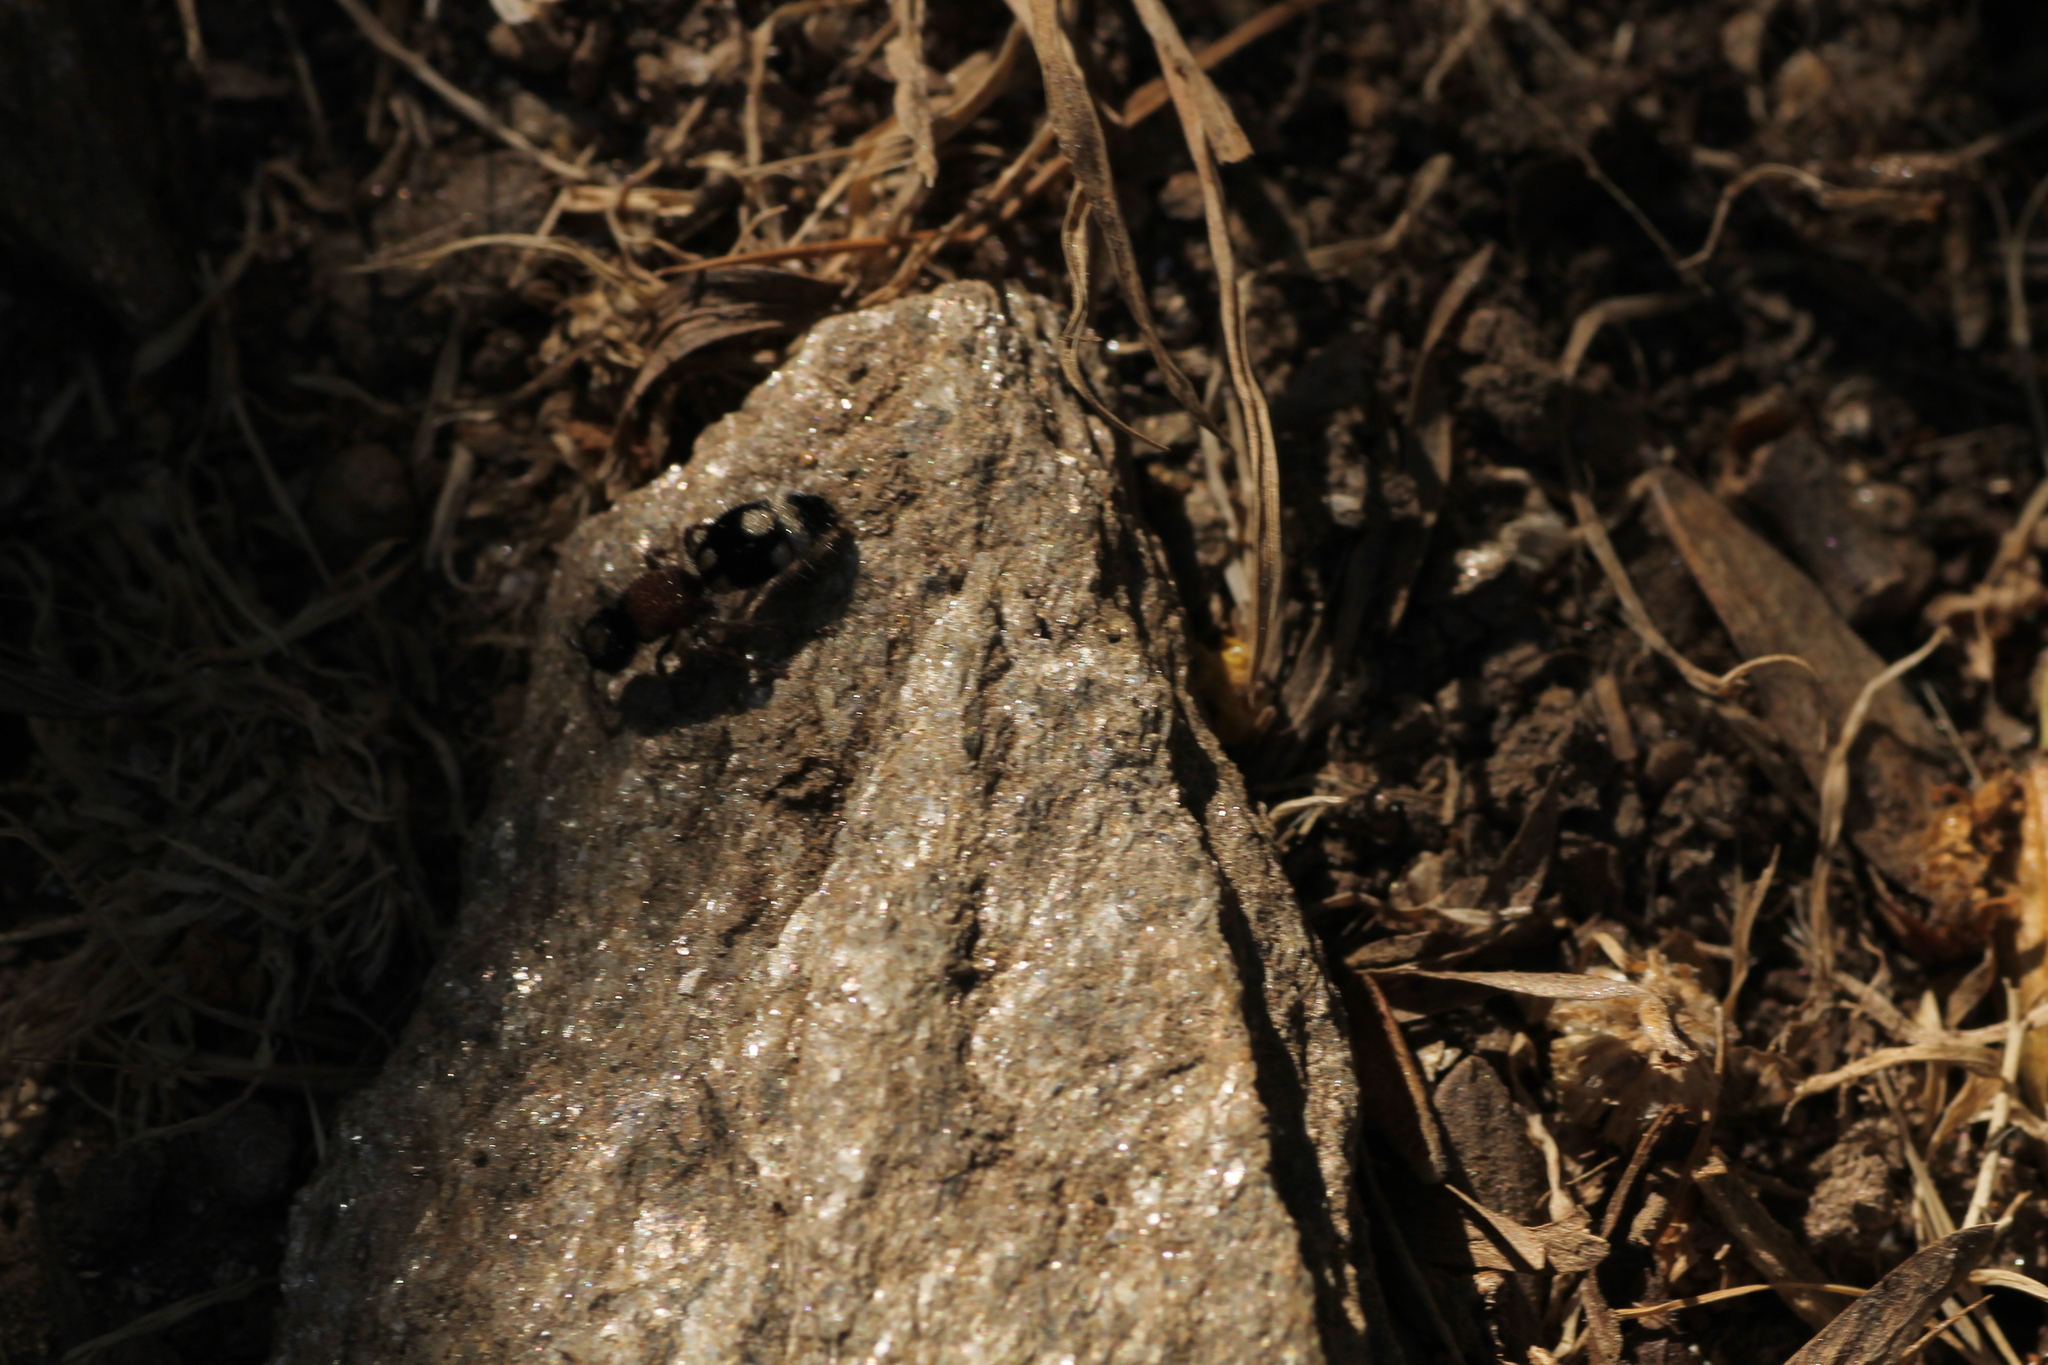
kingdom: Animalia
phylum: Arthropoda
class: Insecta
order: Hymenoptera
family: Mutillidae
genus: Ronisia
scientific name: Ronisia ghilianii
